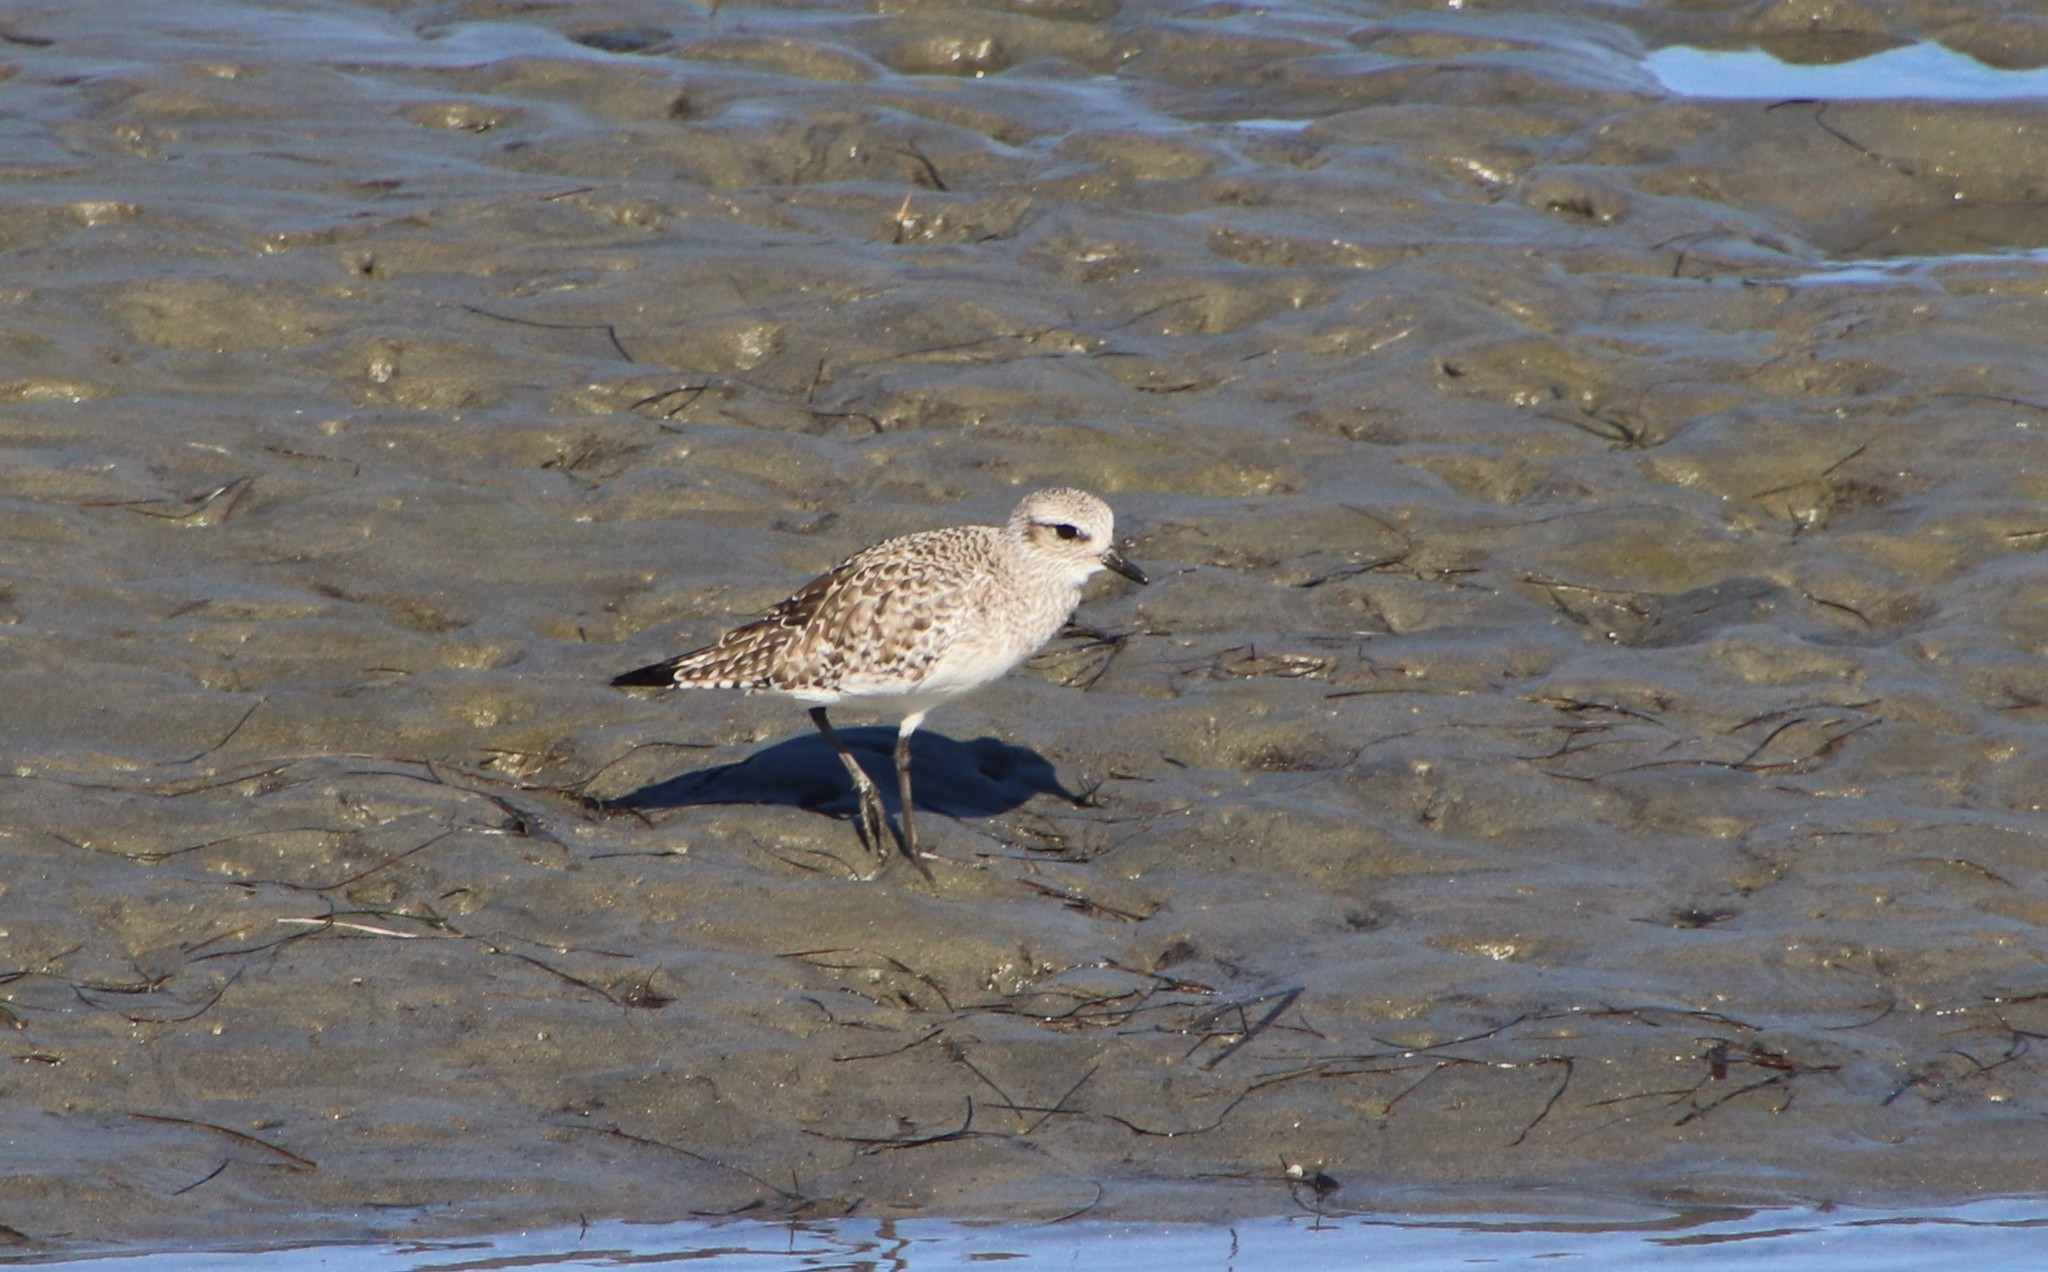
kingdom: Animalia
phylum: Chordata
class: Aves
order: Charadriiformes
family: Charadriidae
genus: Pluvialis
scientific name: Pluvialis squatarola
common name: Grey plover
